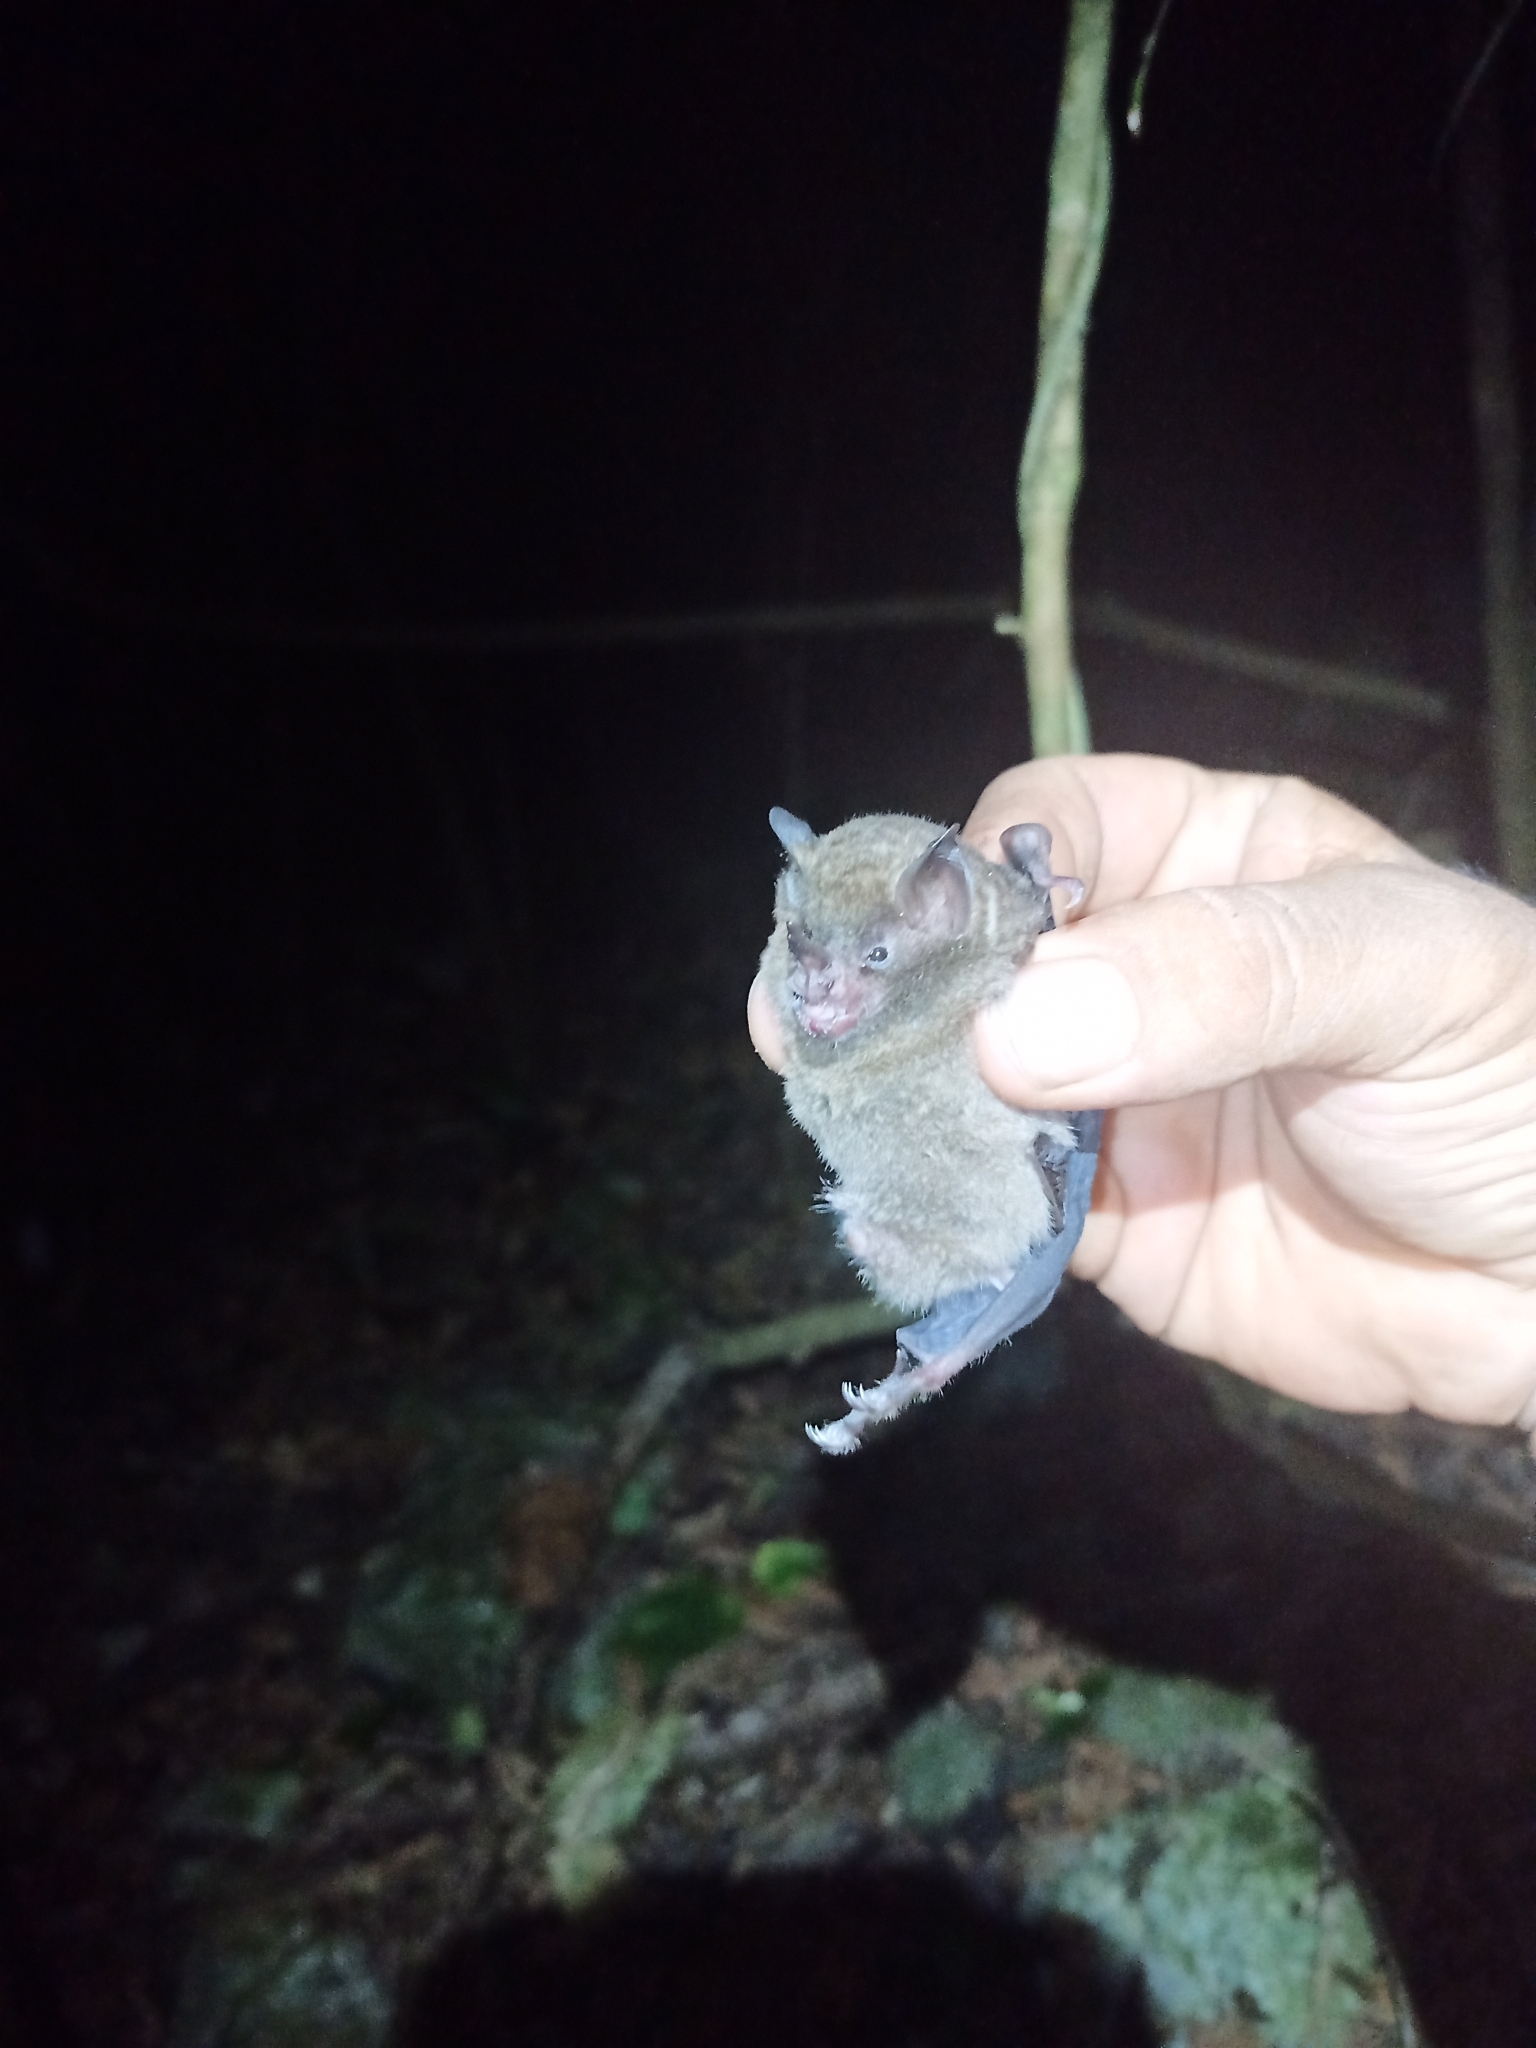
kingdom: Animalia
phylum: Chordata
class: Mammalia
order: Chiroptera
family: Phyllostomidae
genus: Carollia
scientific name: Carollia sowelli
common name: Sowell’s short-tailed bat
